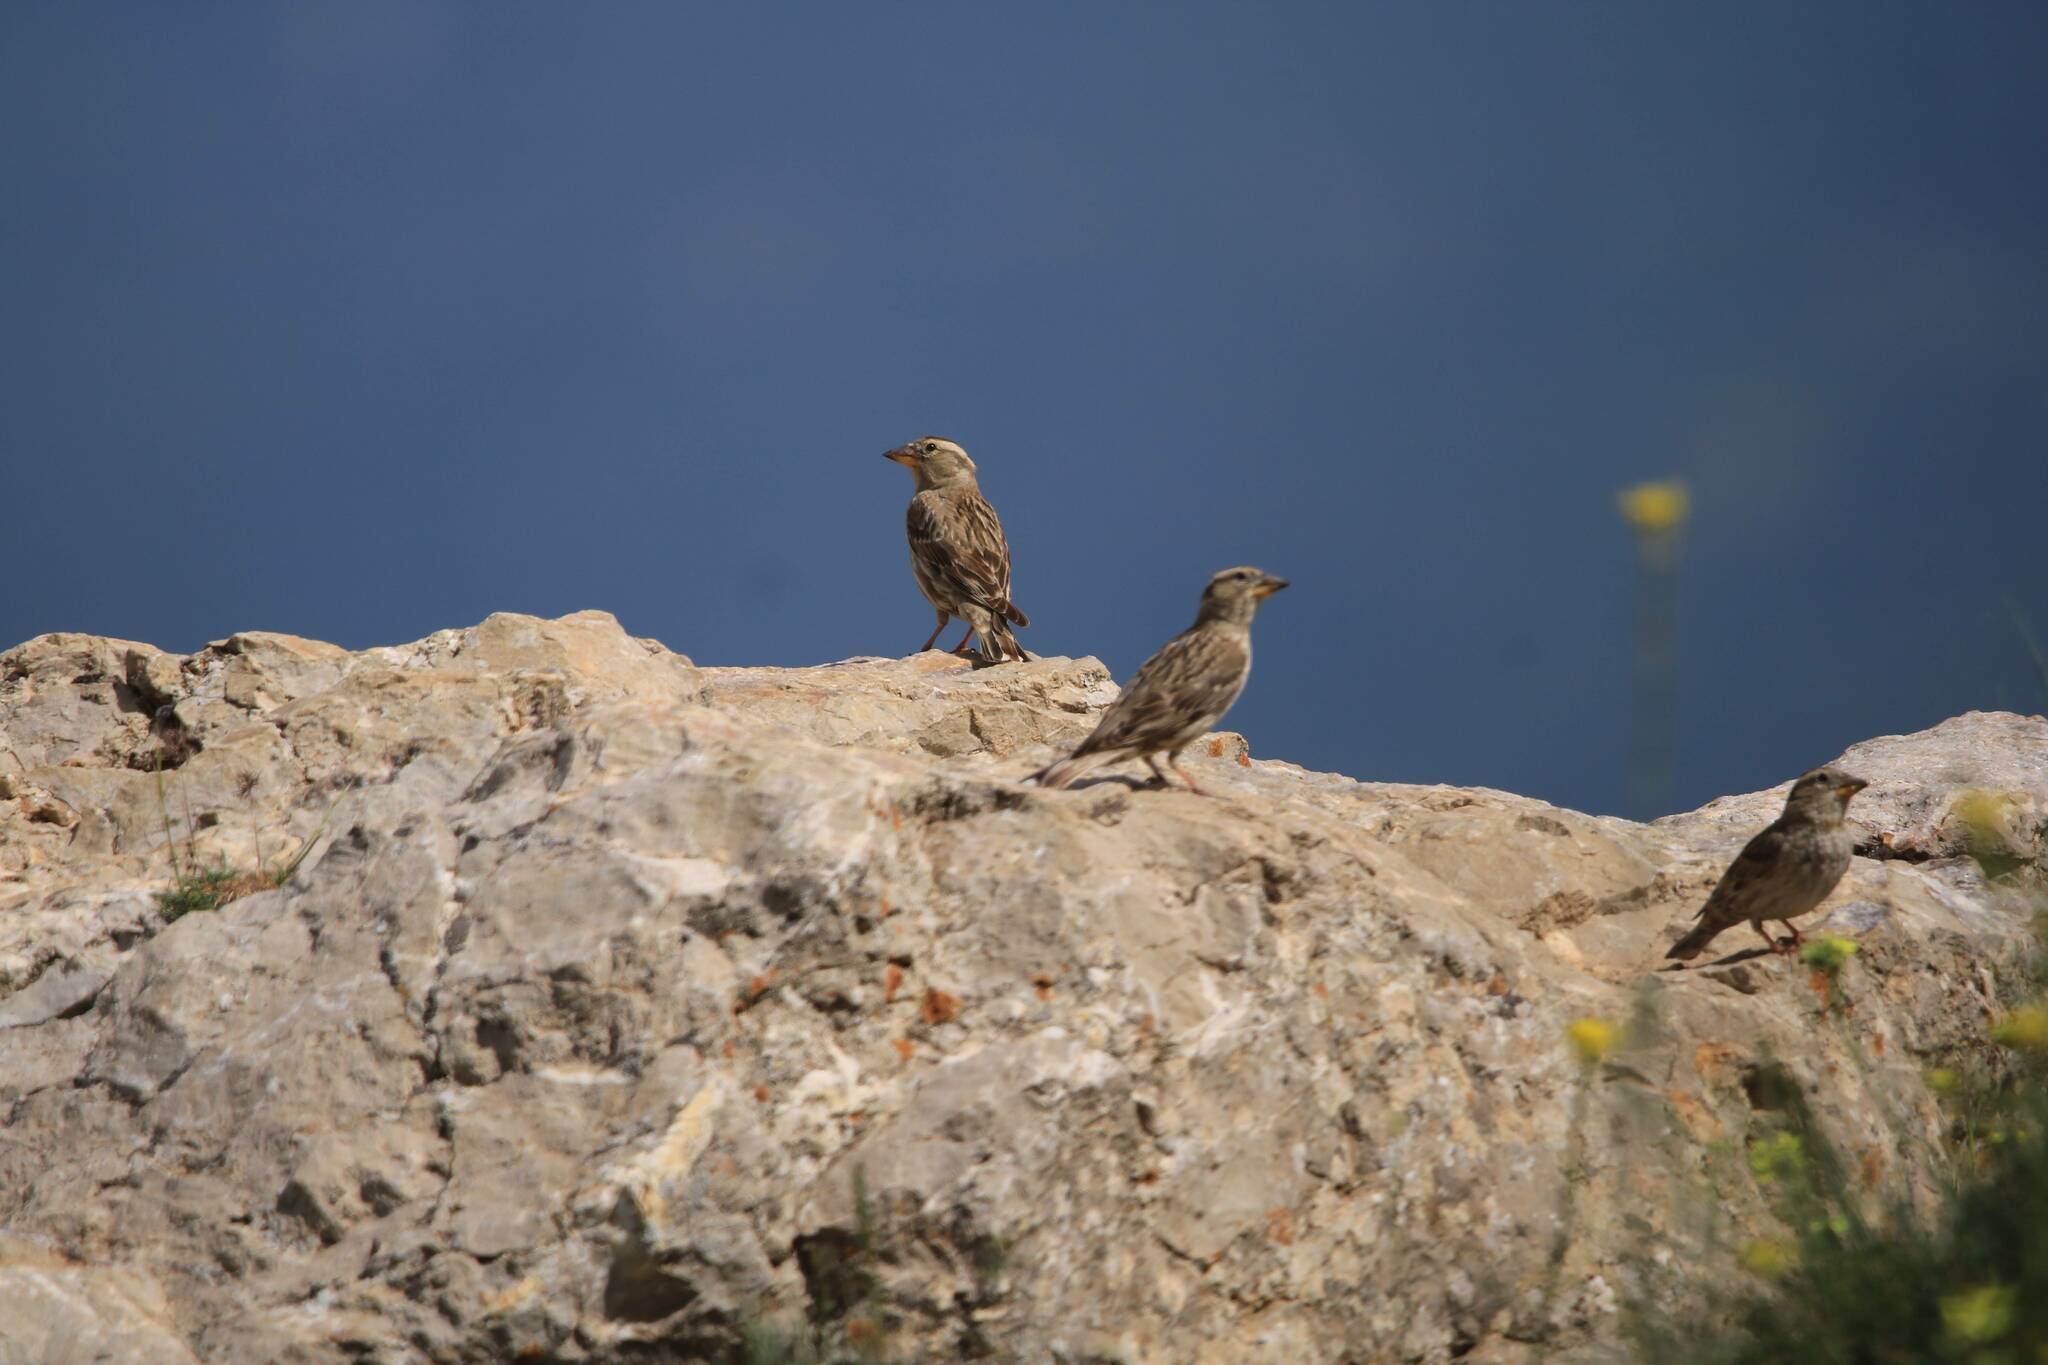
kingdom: Animalia
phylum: Chordata
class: Aves
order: Passeriformes
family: Passeridae
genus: Petronia
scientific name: Petronia petronia
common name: Rock sparrow
